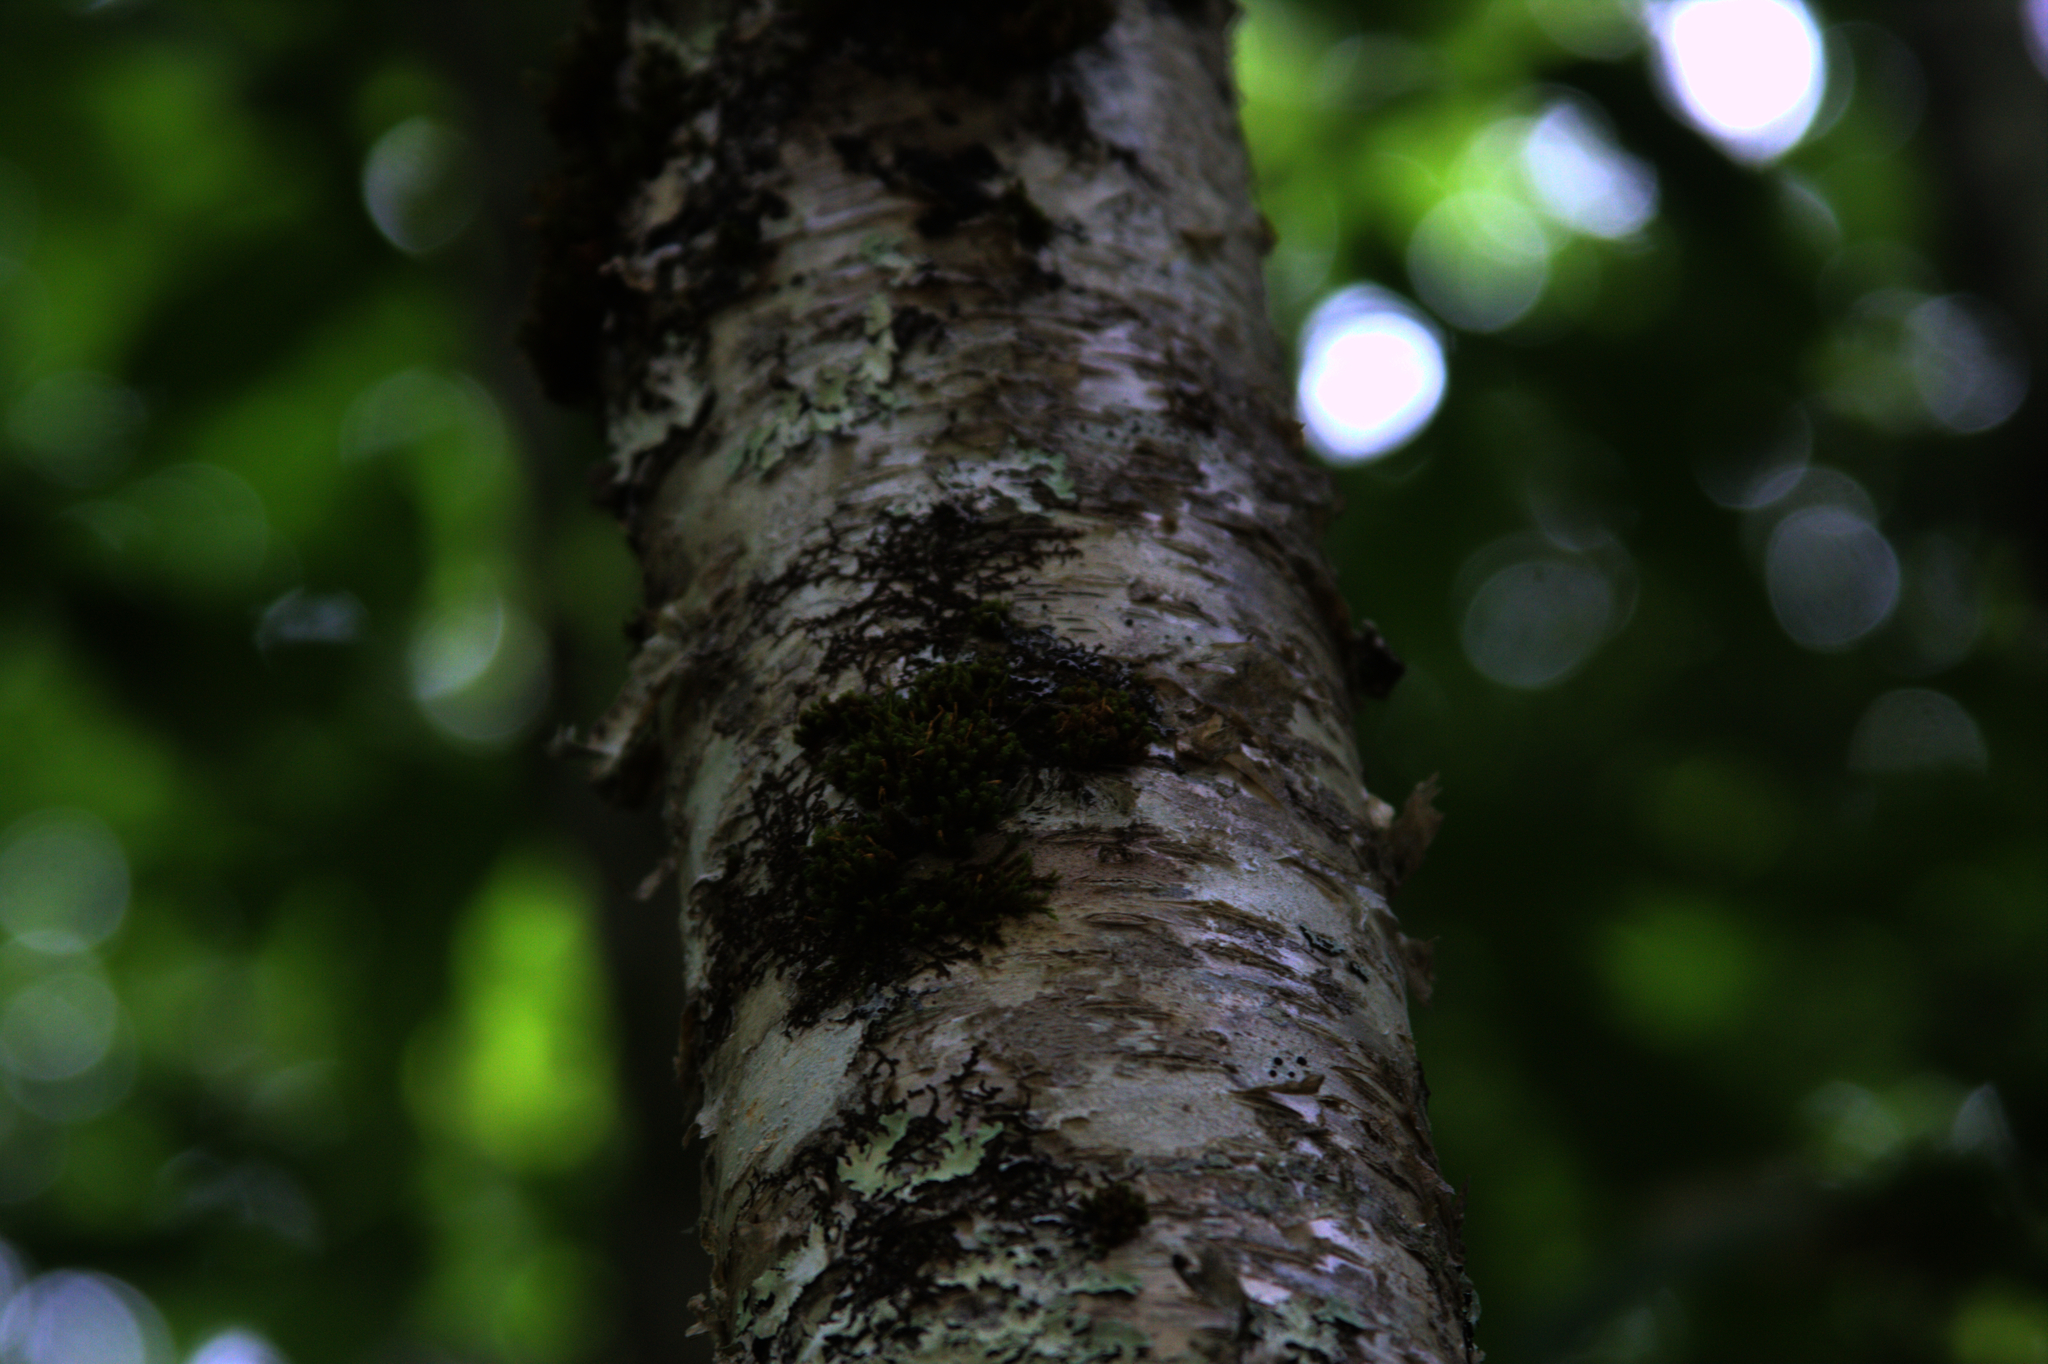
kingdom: Plantae
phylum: Bryophyta
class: Bryopsida
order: Orthotrichales
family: Orthotrichaceae
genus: Ulota
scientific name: Ulota crispa
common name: Crisped pincushion moss
